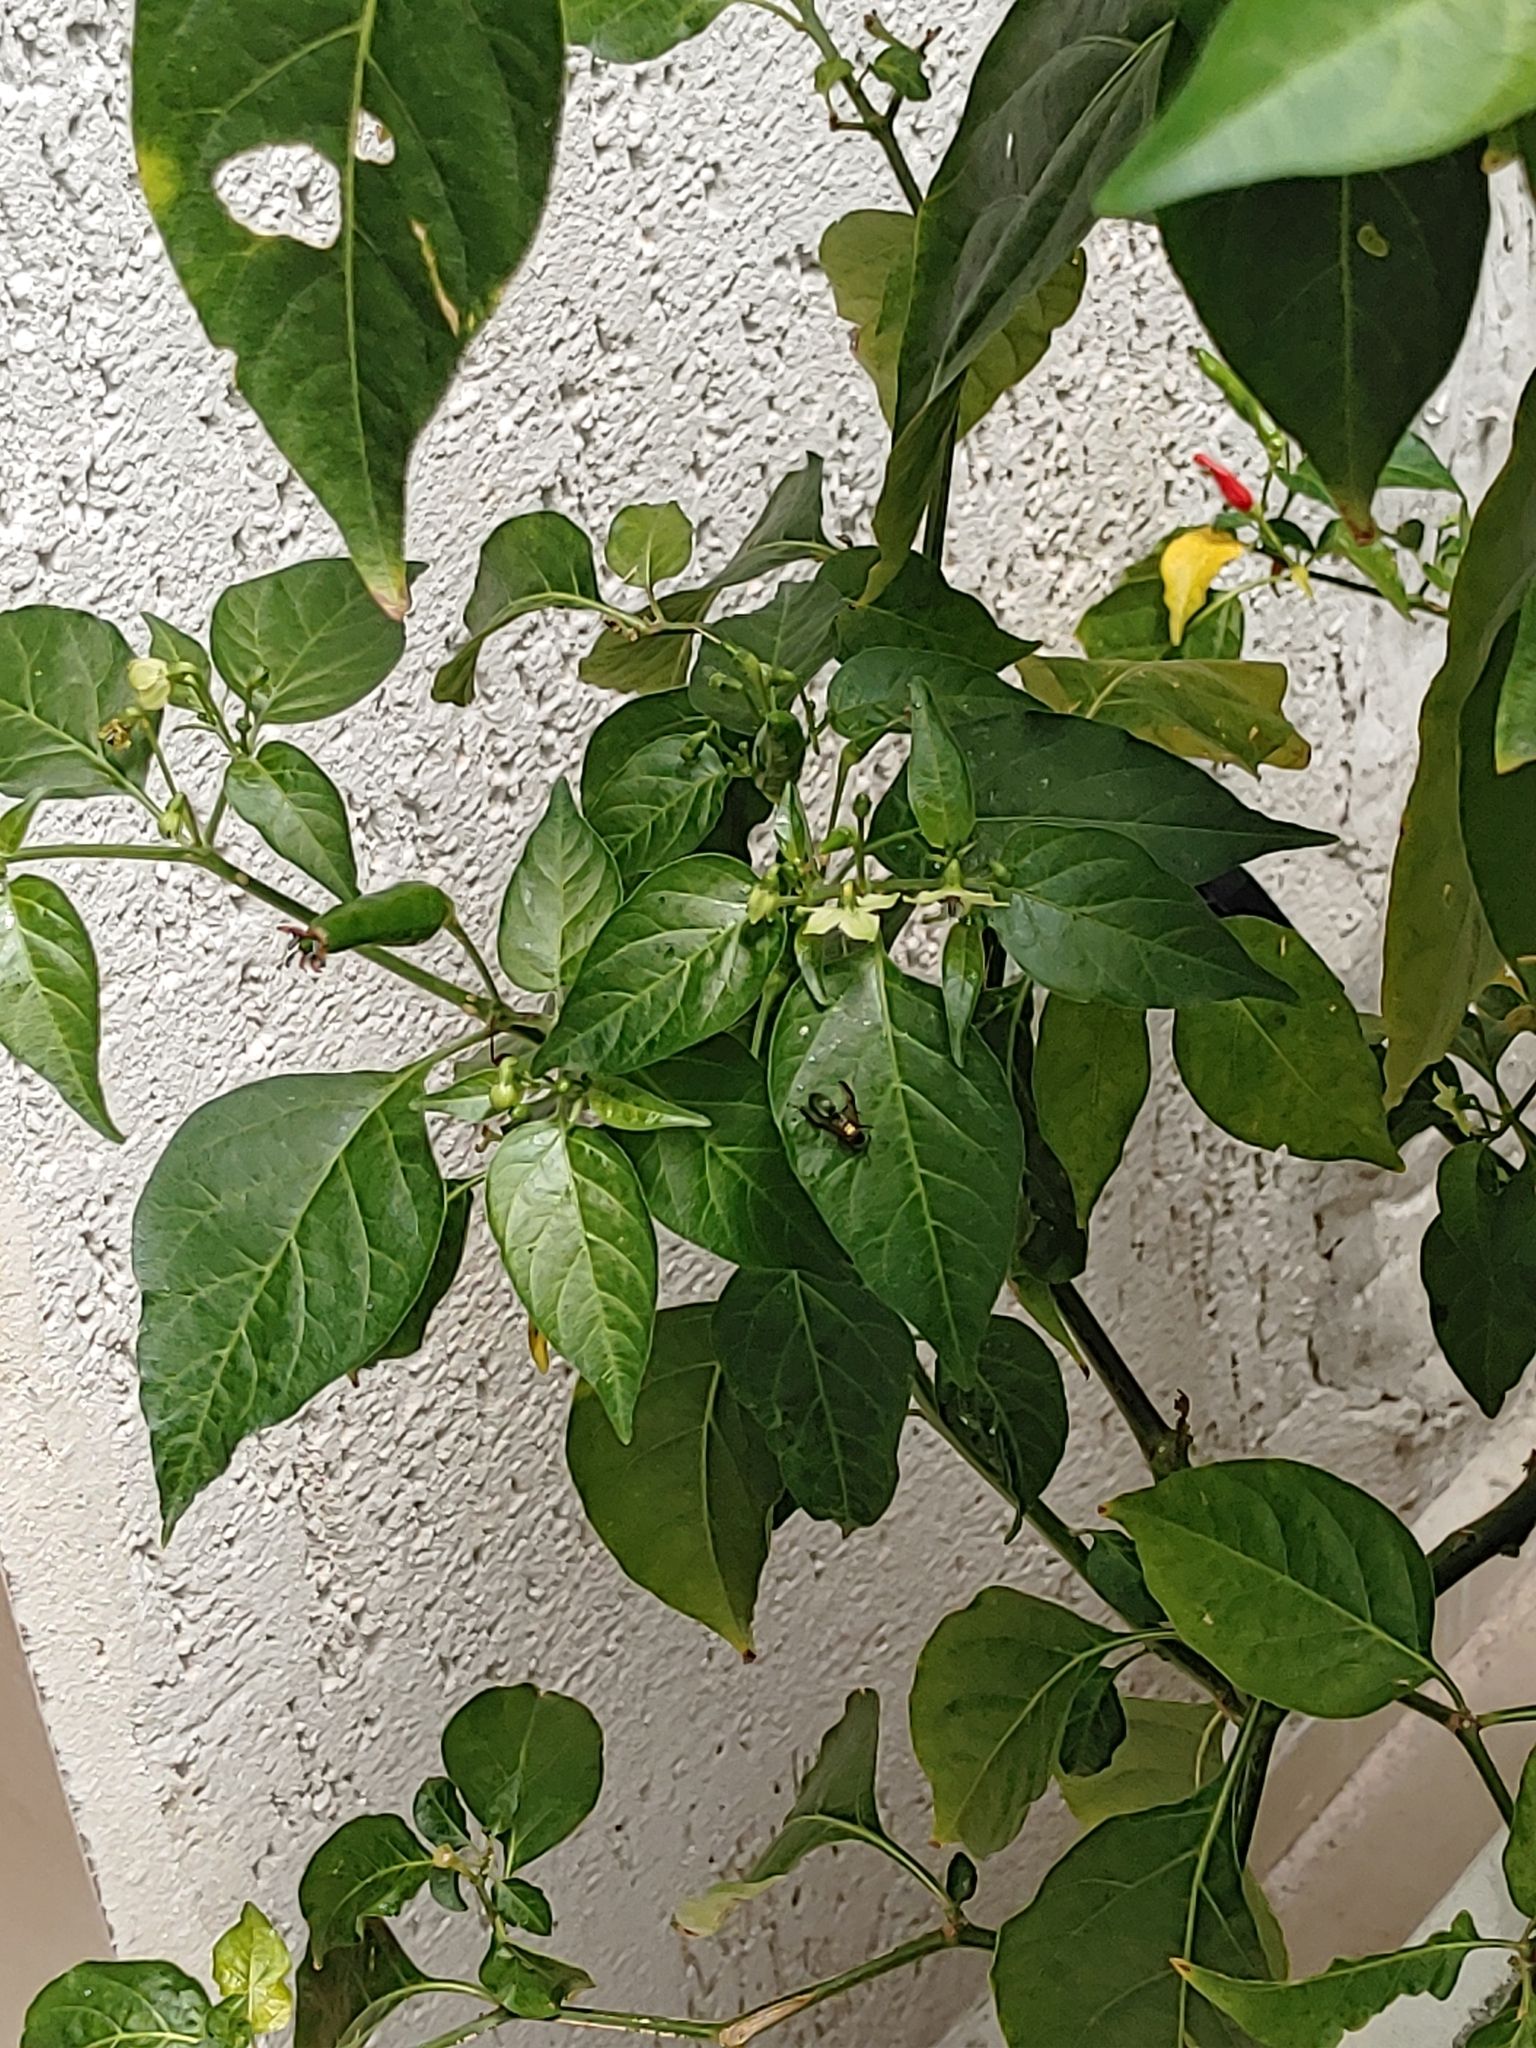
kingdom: Animalia
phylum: Arthropoda
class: Insecta
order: Hymenoptera
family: Eumenidae
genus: Polybia
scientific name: Polybia paulista
